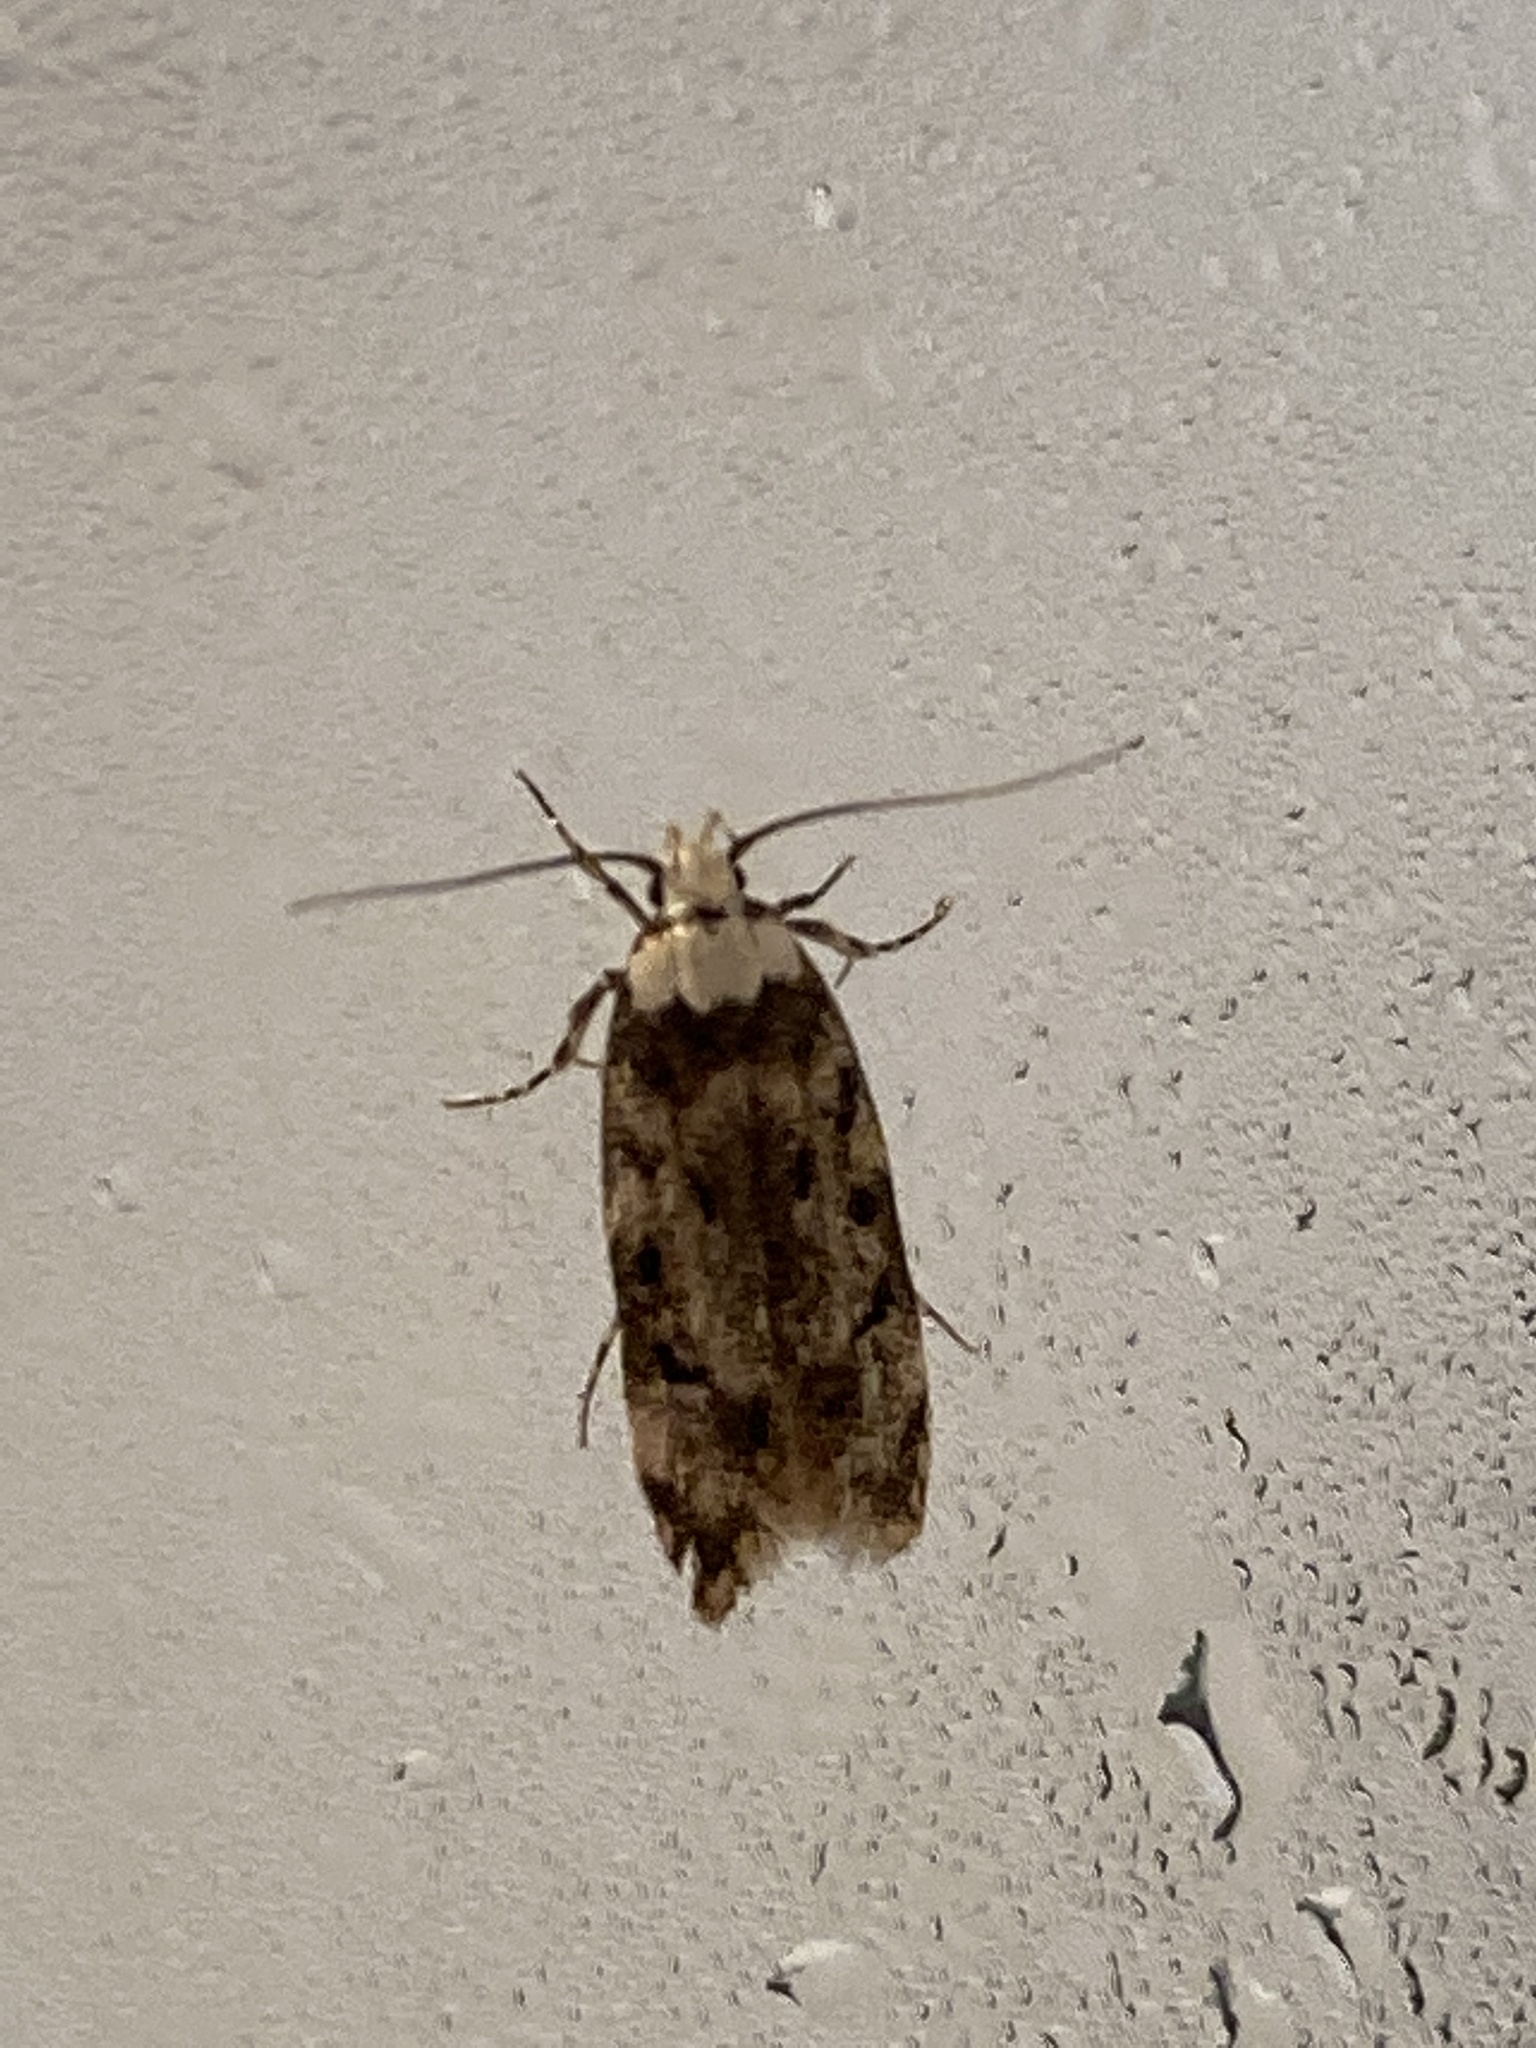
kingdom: Animalia
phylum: Arthropoda
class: Insecta
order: Lepidoptera
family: Oecophoridae
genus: Endrosis
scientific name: Endrosis sarcitrella
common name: White-shouldered house moth
